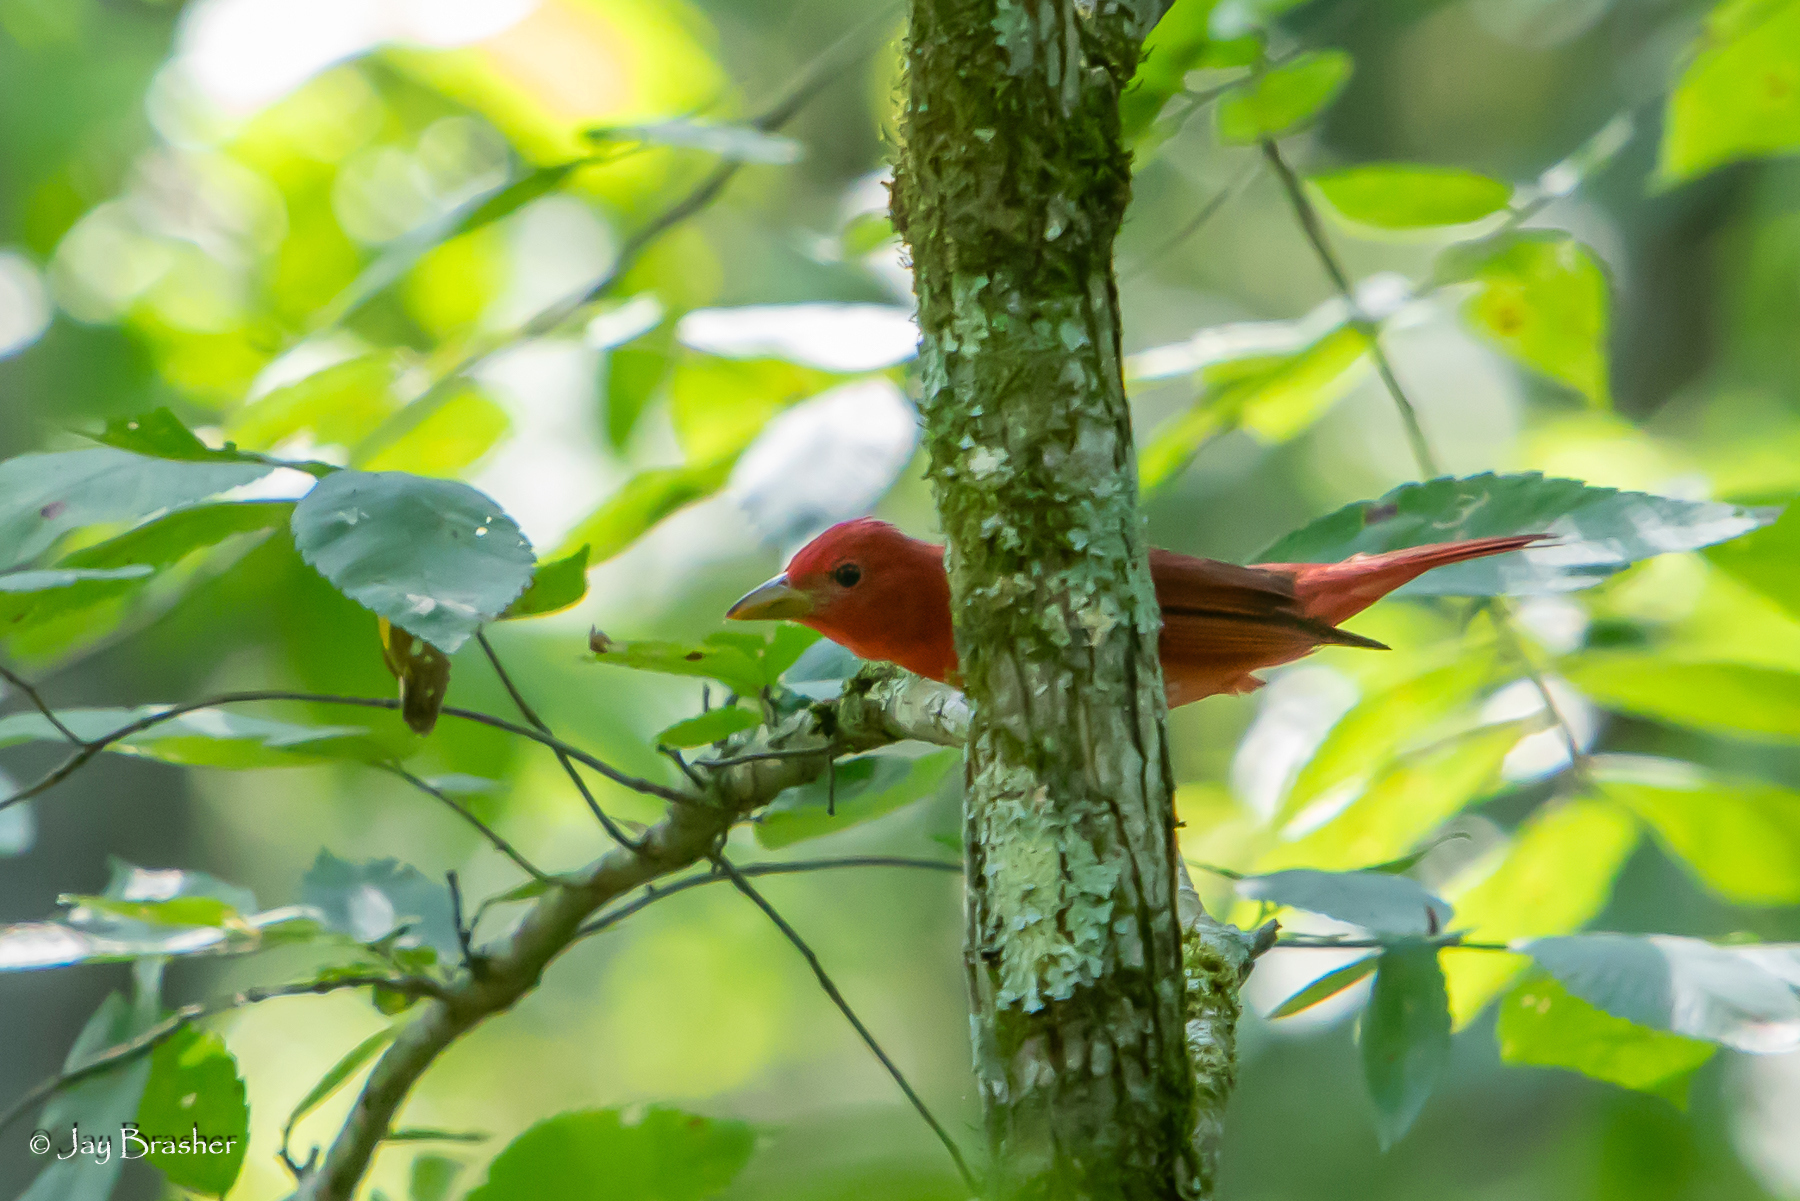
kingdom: Animalia
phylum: Chordata
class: Aves
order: Passeriformes
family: Cardinalidae
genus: Piranga
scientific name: Piranga rubra
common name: Summer tanager
